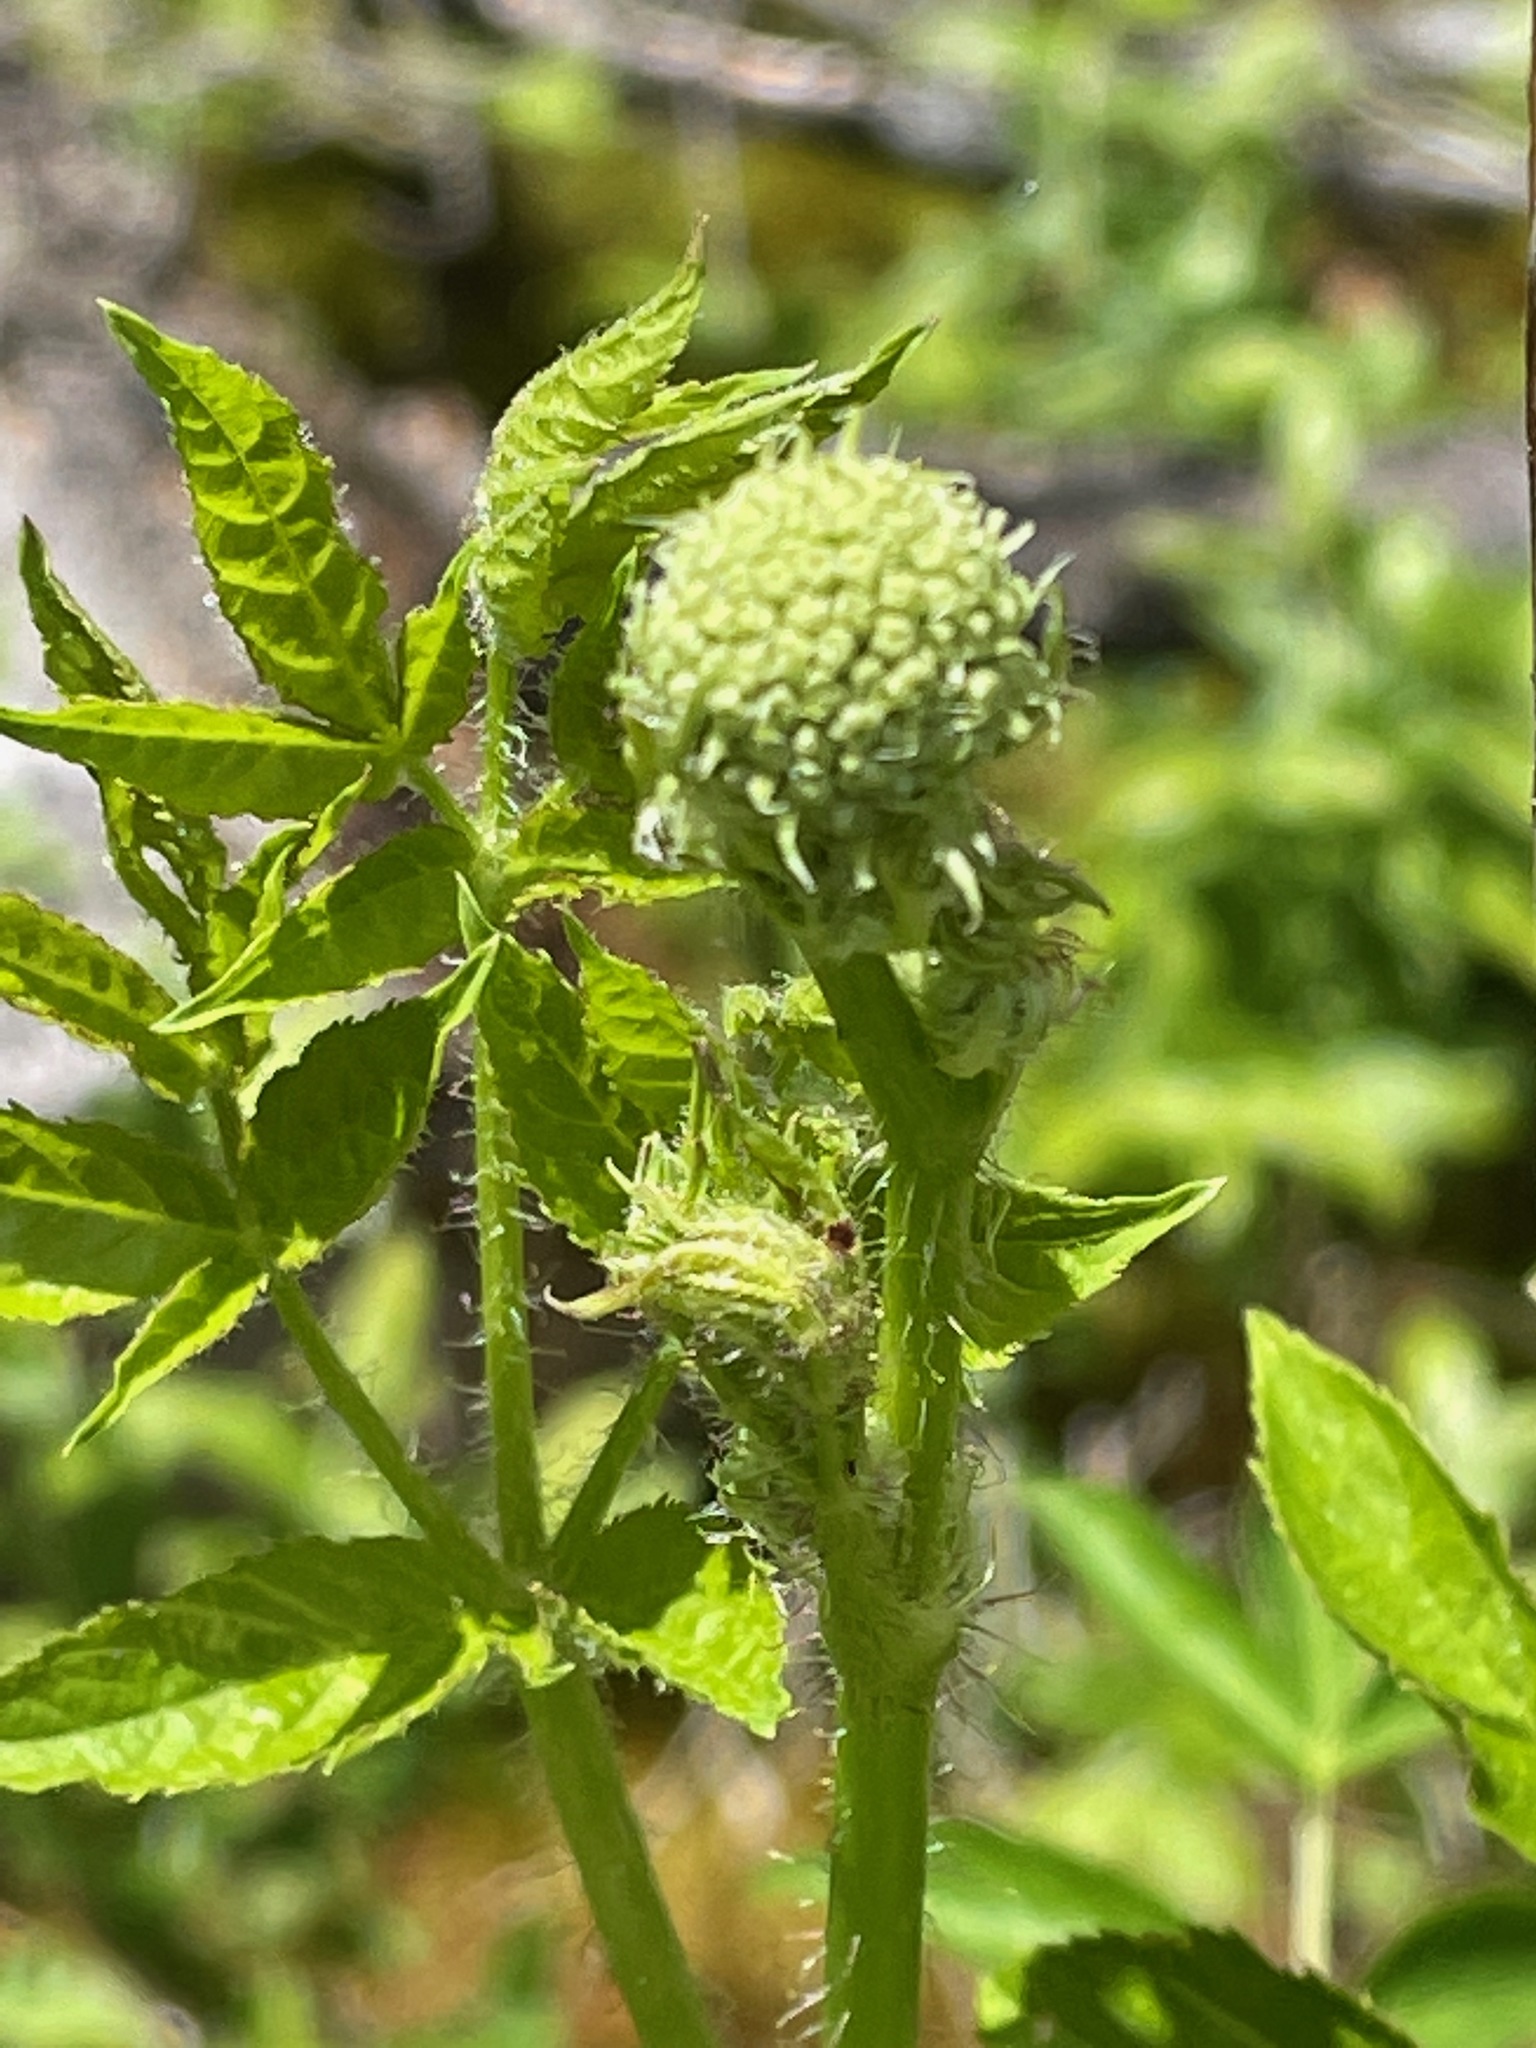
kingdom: Plantae
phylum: Tracheophyta
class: Magnoliopsida
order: Apiales
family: Araliaceae
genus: Aralia
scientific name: Aralia hispida
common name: Bristly sarsaparilla
